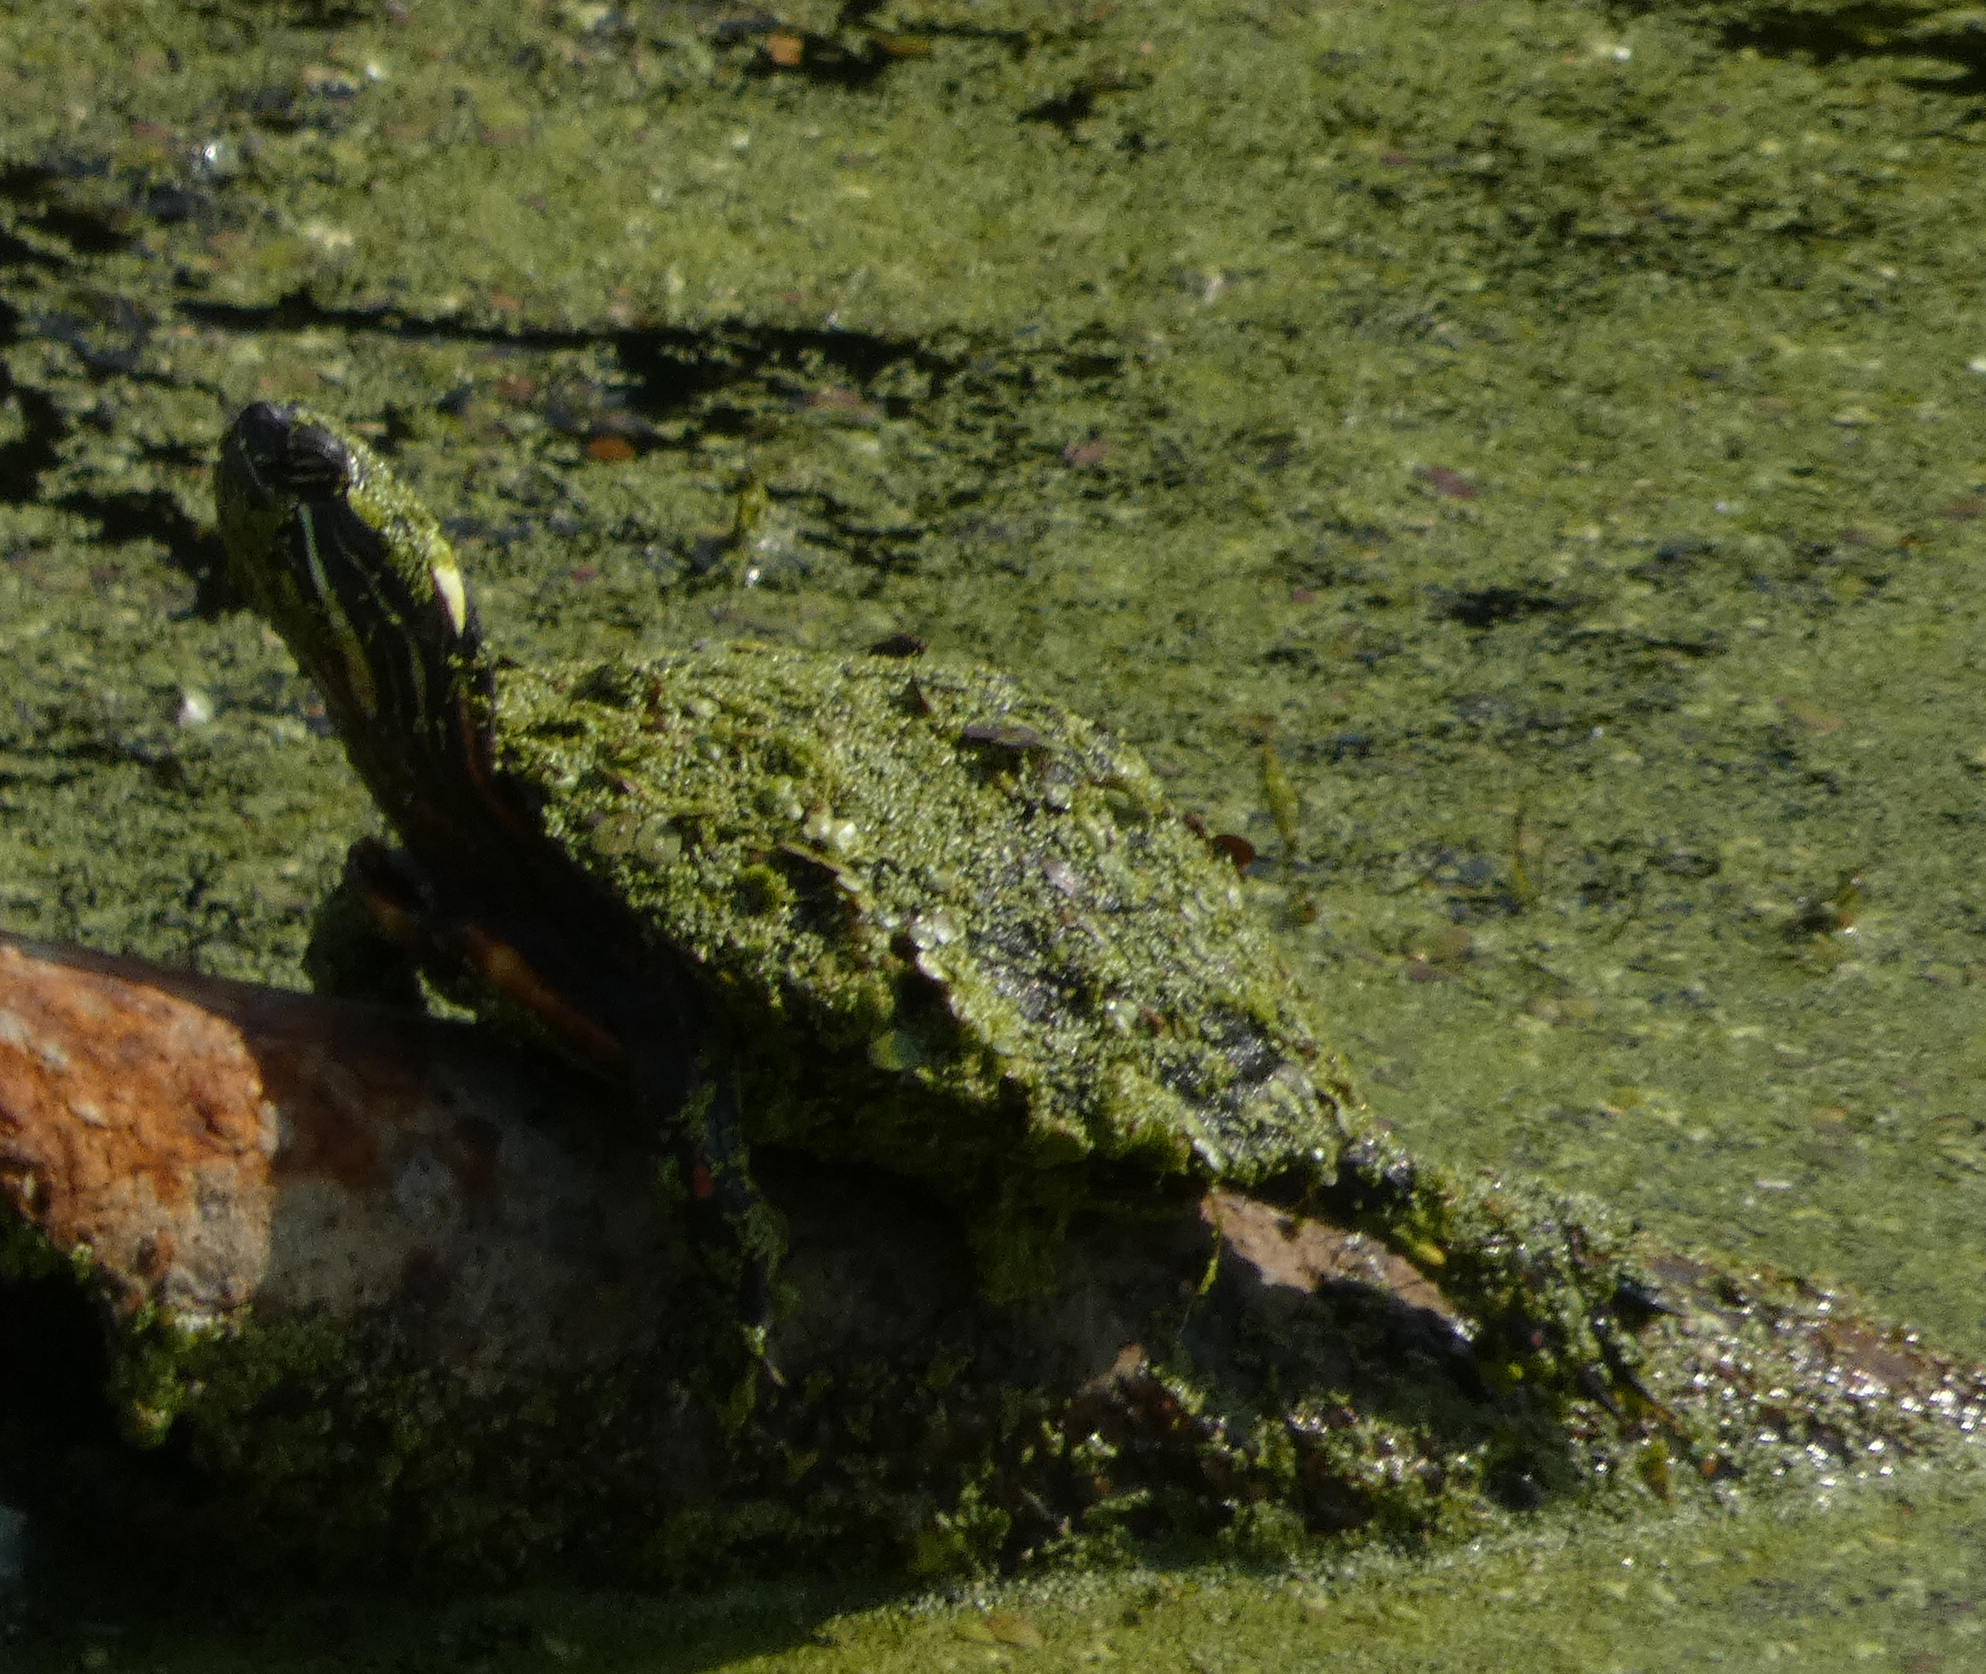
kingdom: Animalia
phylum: Chordata
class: Testudines
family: Emydidae
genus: Chrysemys
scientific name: Chrysemys picta
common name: Painted turtle
